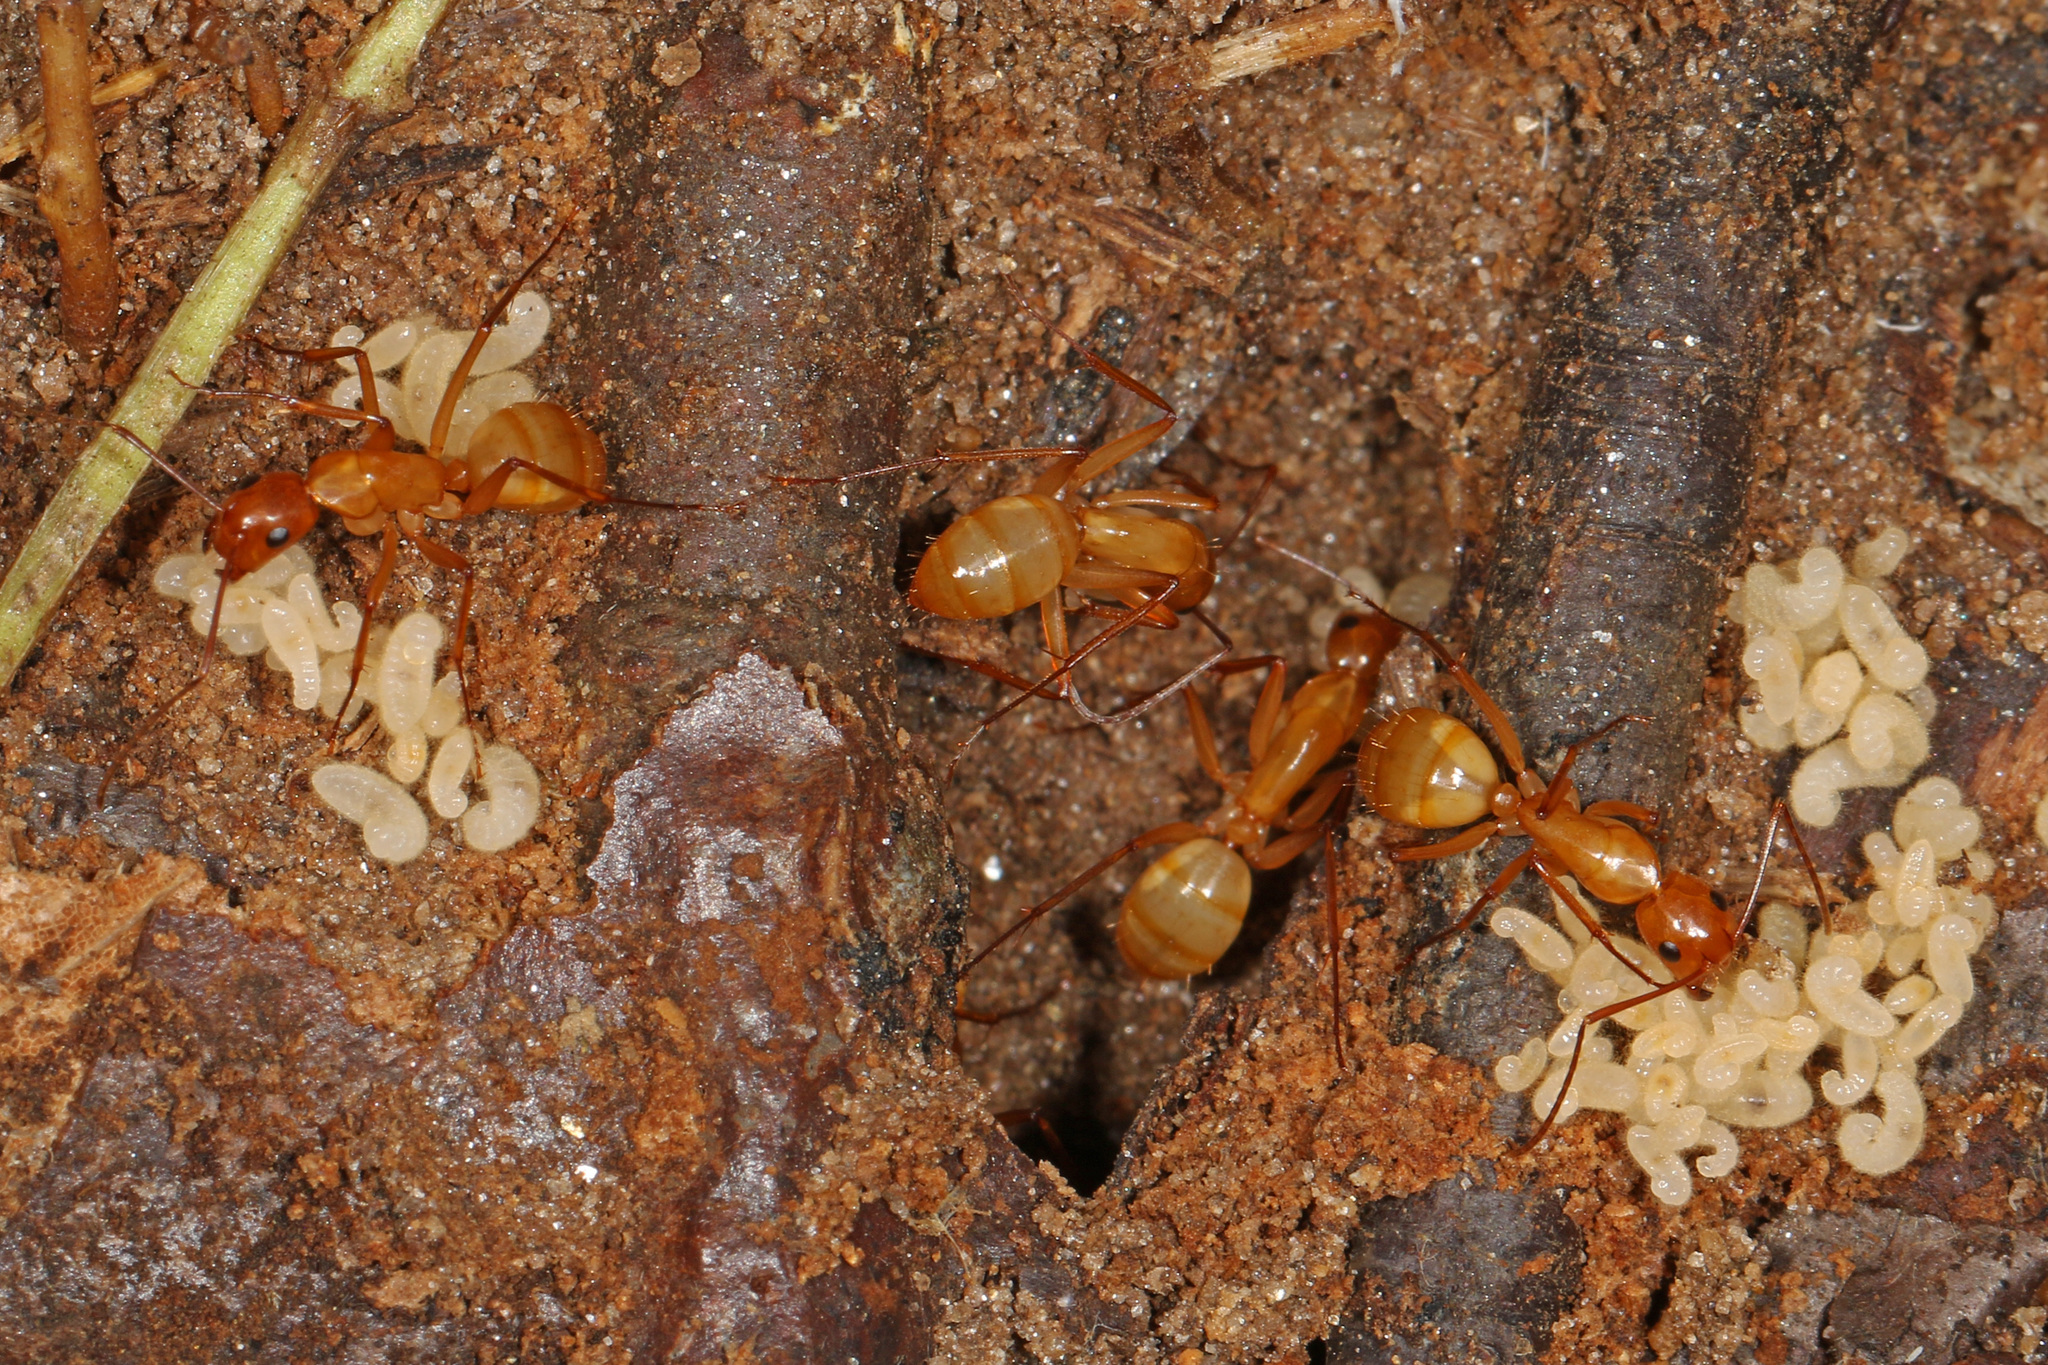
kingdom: Animalia
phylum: Arthropoda
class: Insecta
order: Hymenoptera
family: Formicidae
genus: Camponotus
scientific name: Camponotus castaneus
